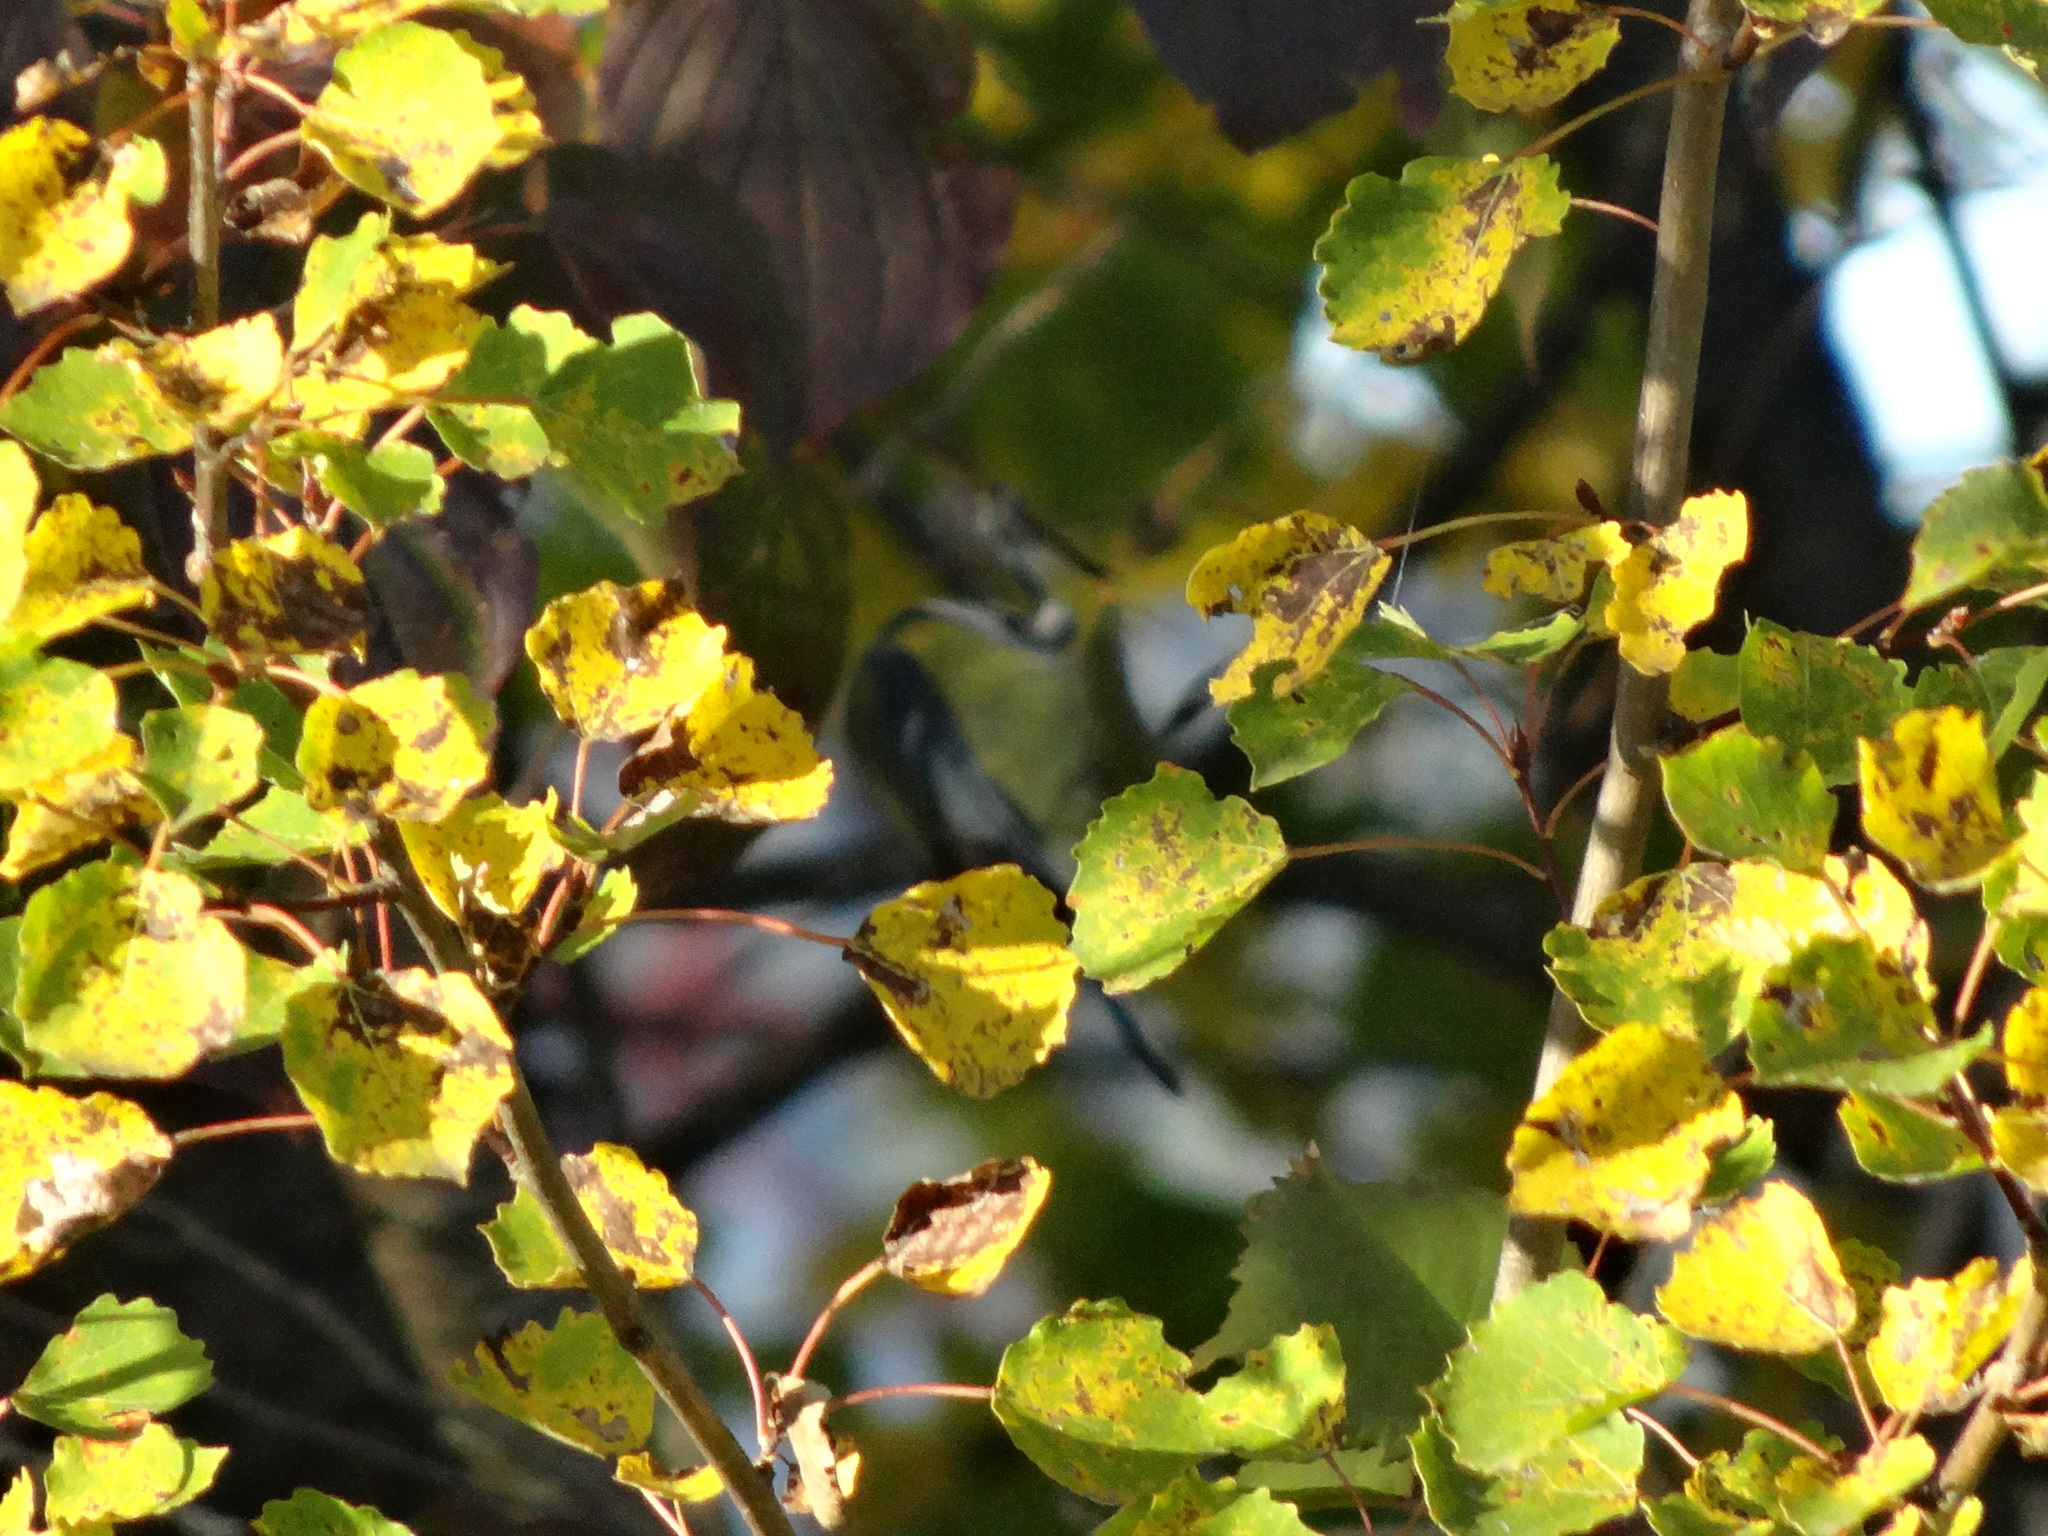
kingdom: Animalia
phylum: Chordata
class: Aves
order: Passeriformes
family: Paridae
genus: Parus
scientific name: Parus major
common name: Great tit
